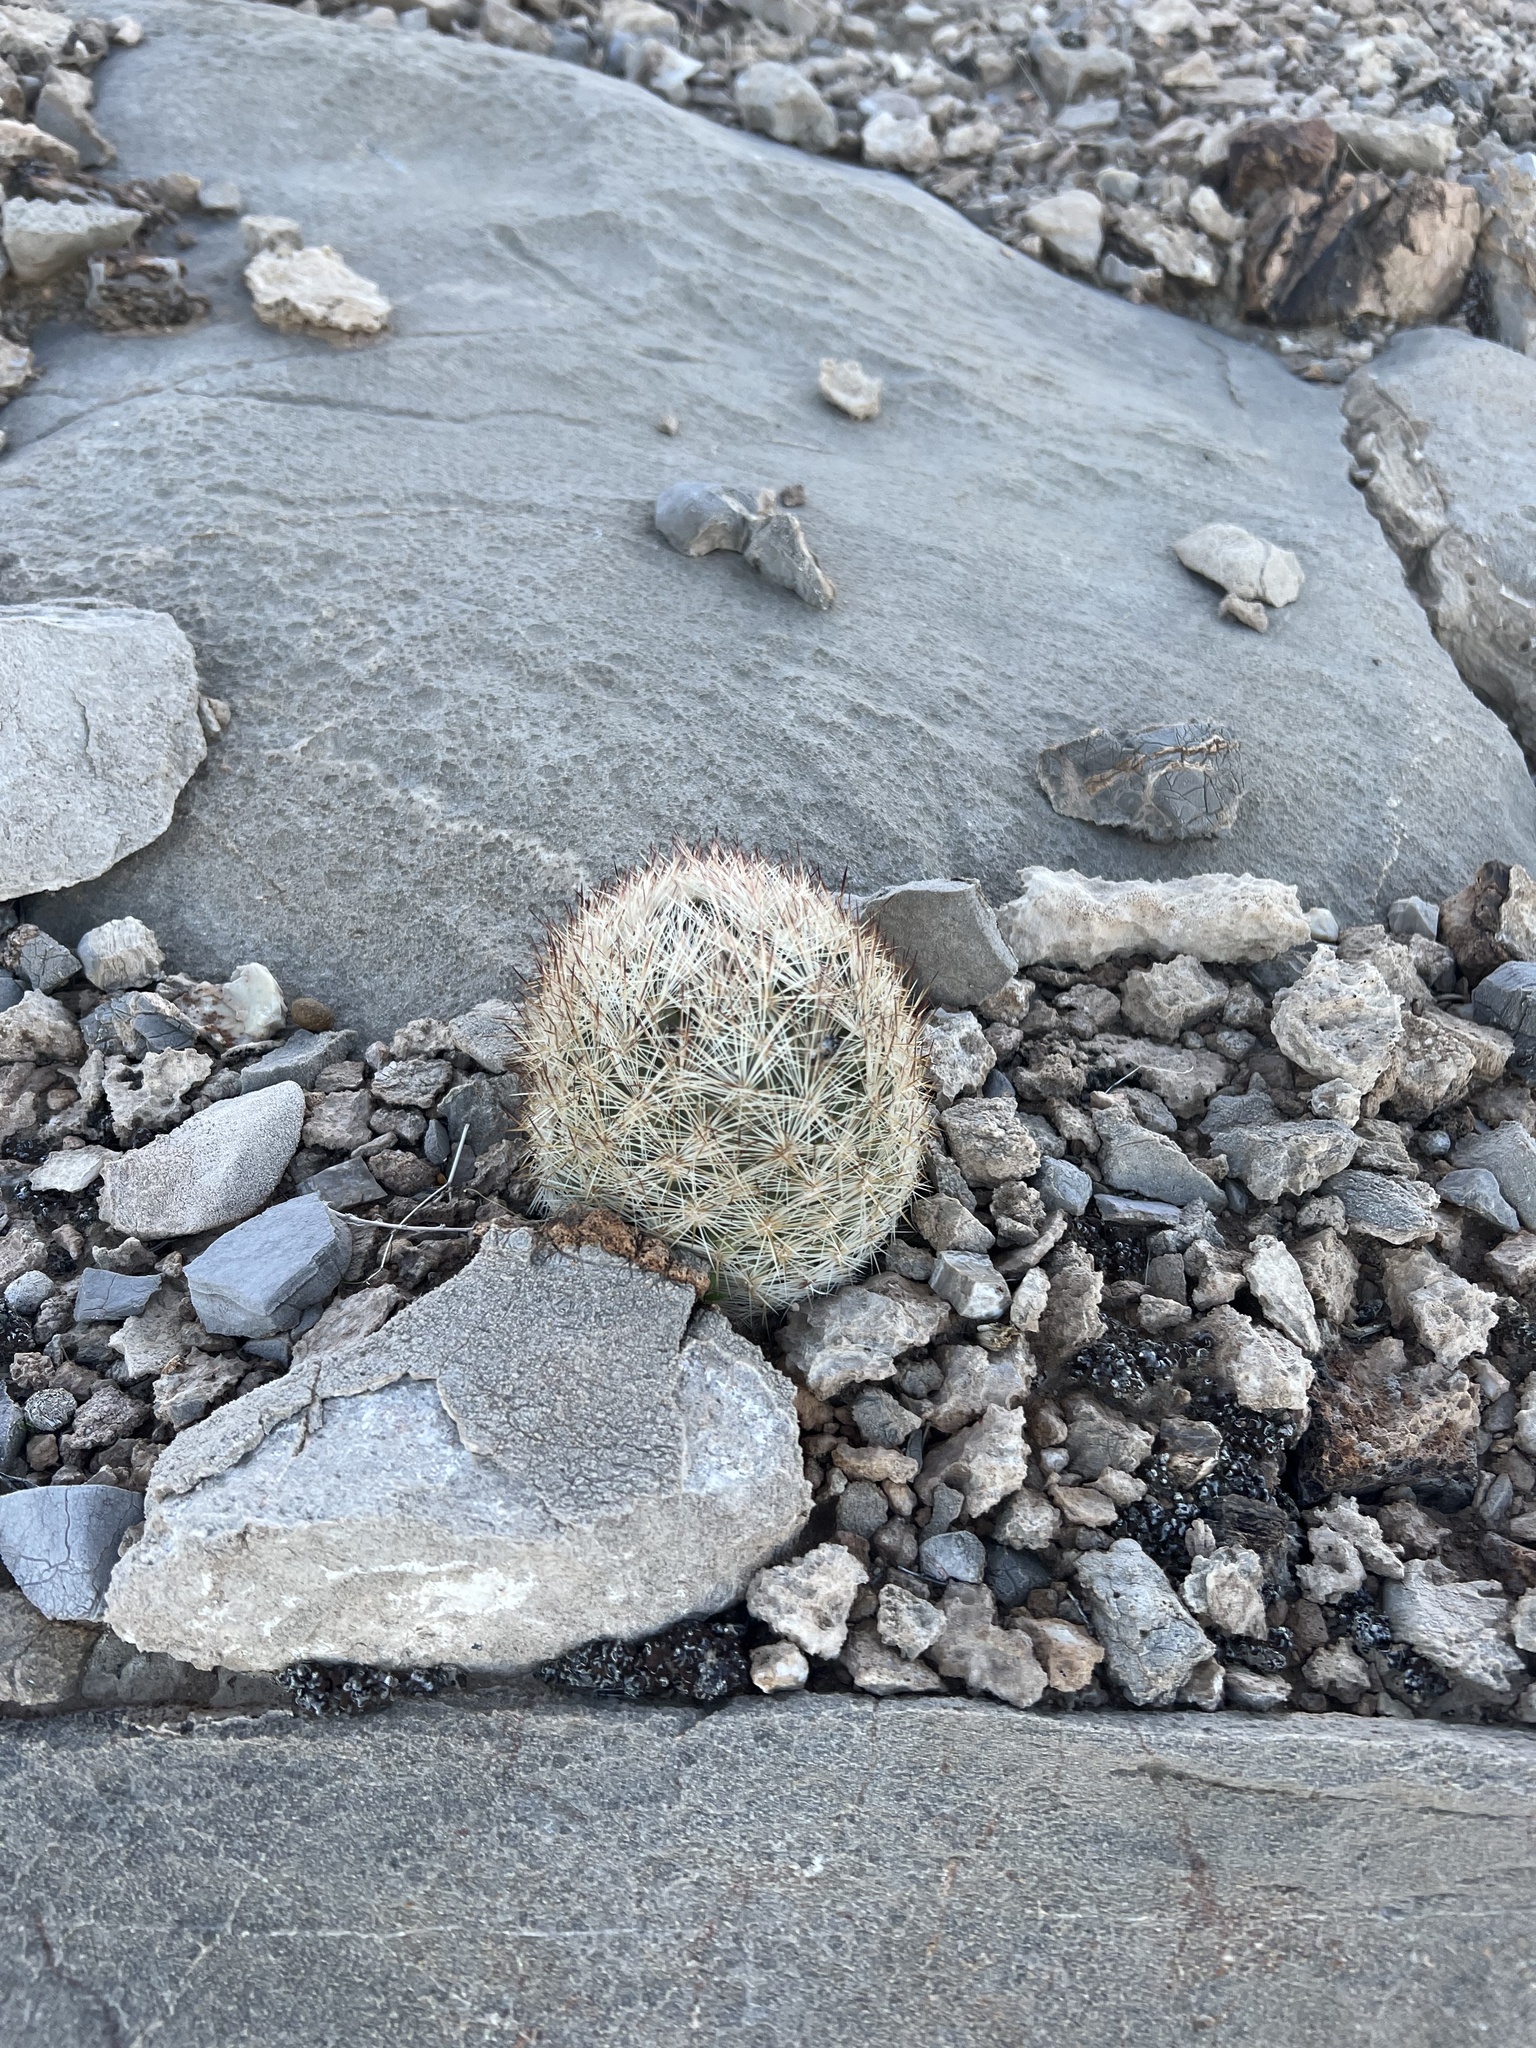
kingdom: Plantae
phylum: Tracheophyta
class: Magnoliopsida
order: Caryophyllales
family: Cactaceae
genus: Pelecyphora
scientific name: Pelecyphora dasyacantha
